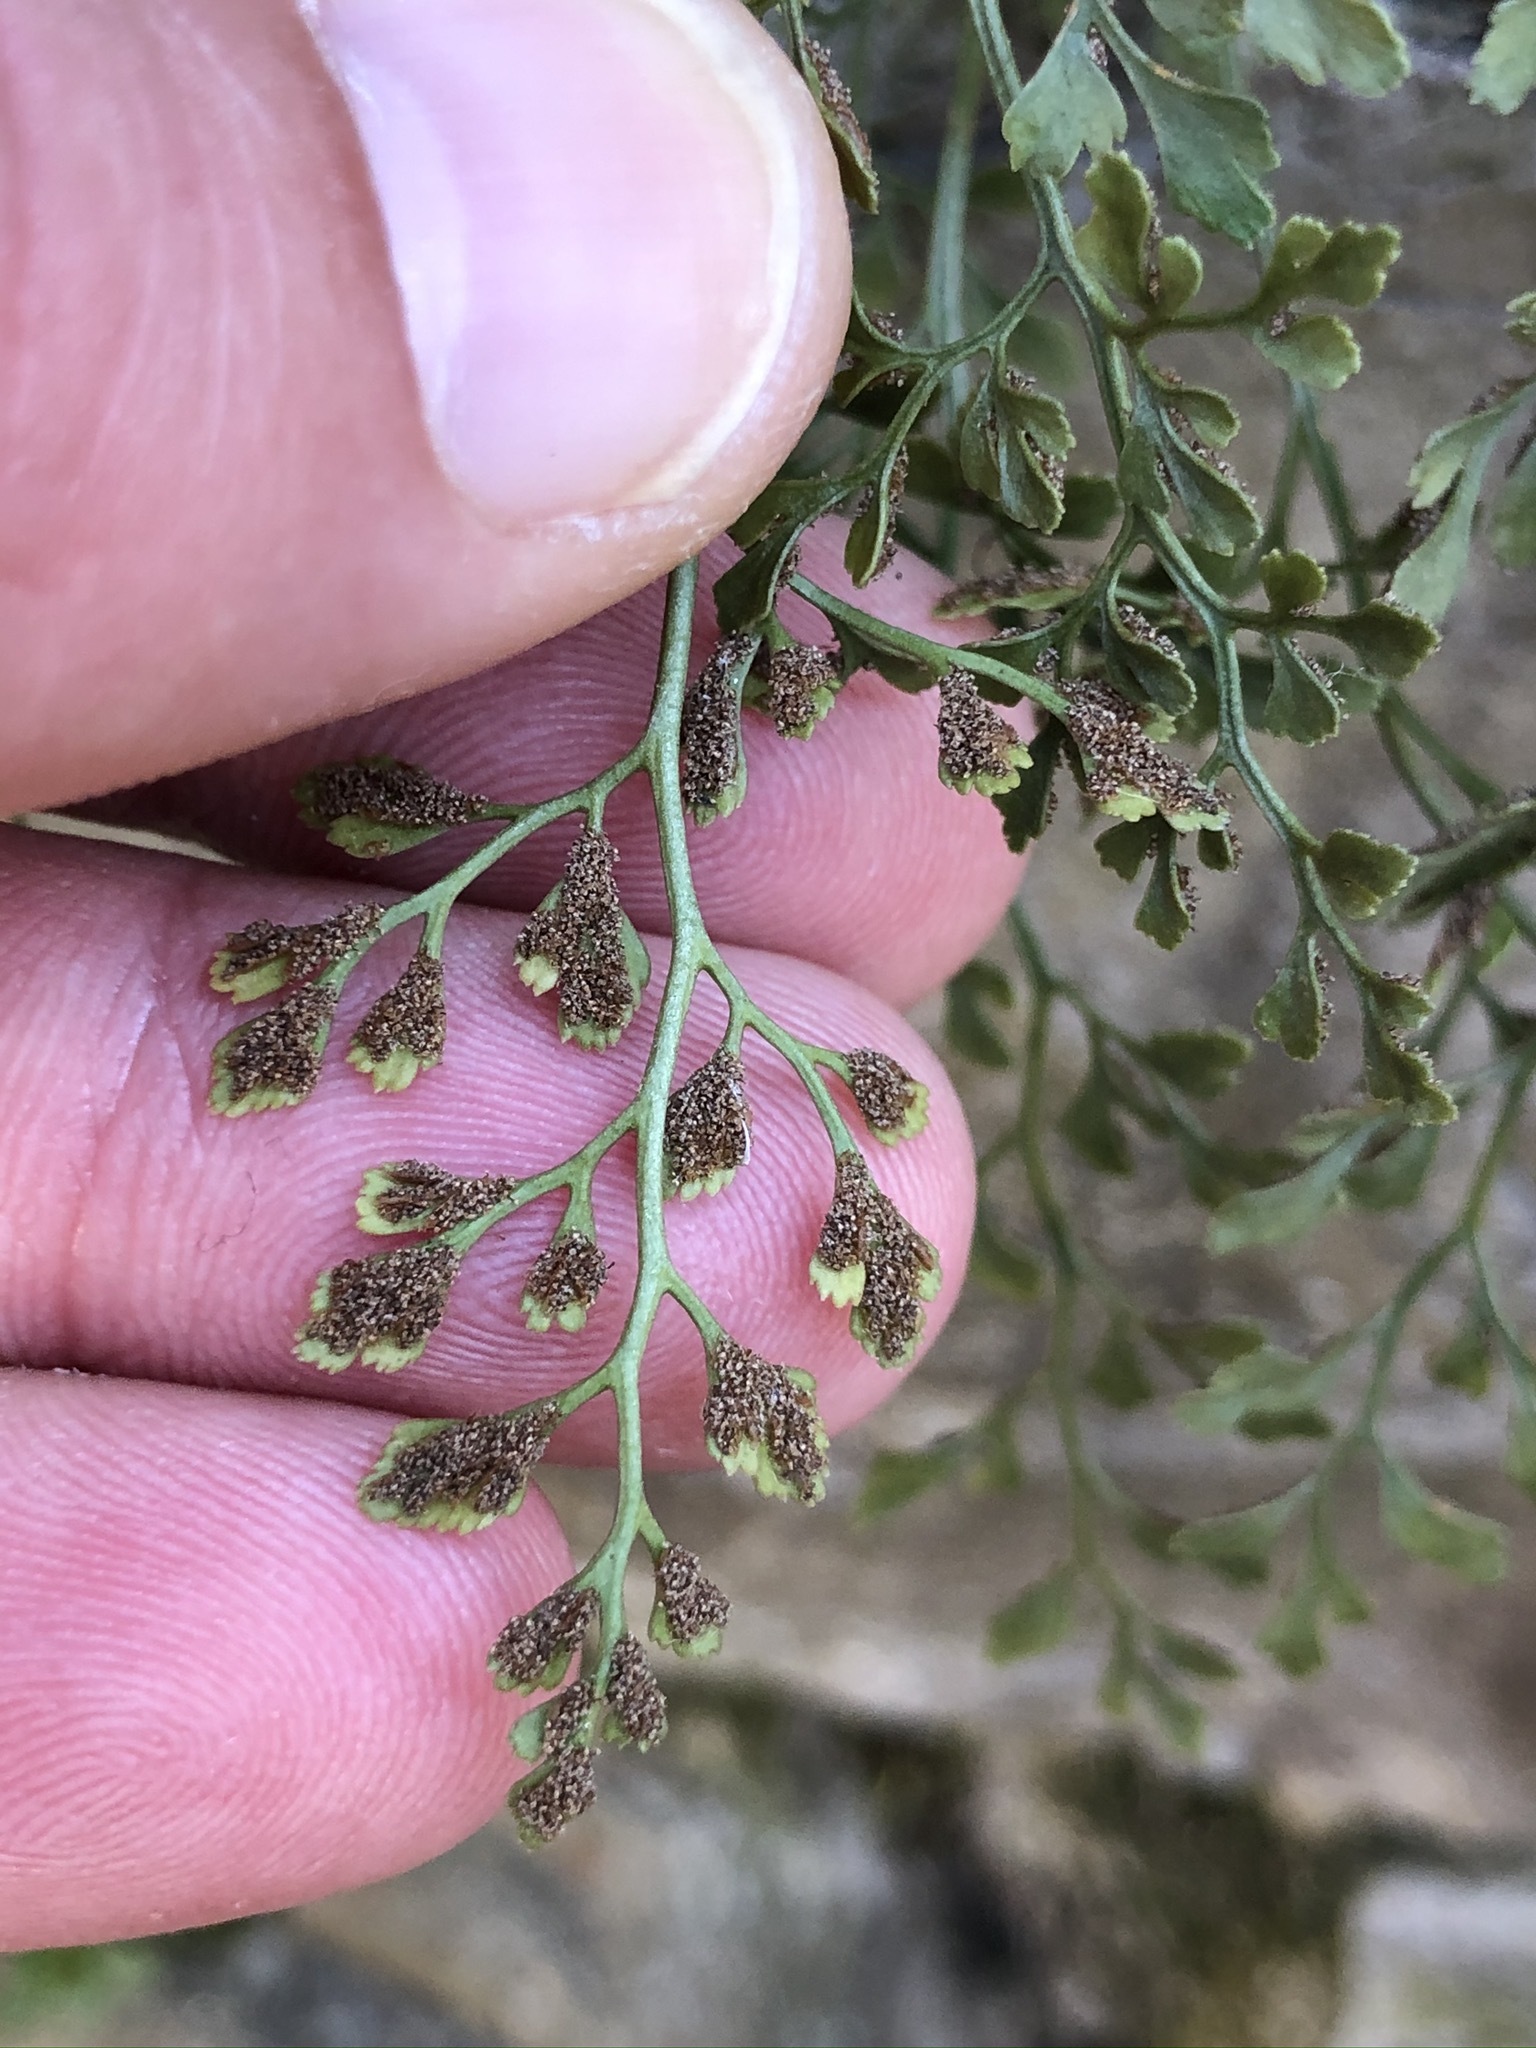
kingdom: Plantae
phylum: Tracheophyta
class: Polypodiopsida
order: Polypodiales
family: Aspleniaceae
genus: Asplenium
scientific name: Asplenium ruta-muraria
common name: Wall-rue
